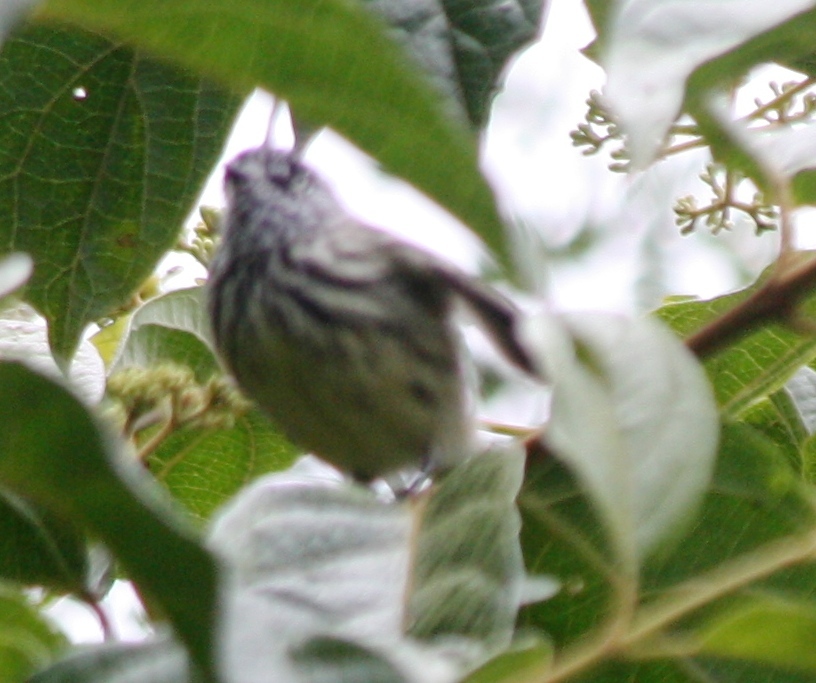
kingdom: Animalia
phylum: Chordata
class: Aves
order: Passeriformes
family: Tyrannidae
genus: Anairetes
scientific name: Anairetes parulus
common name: Tufted tit-tyrant
